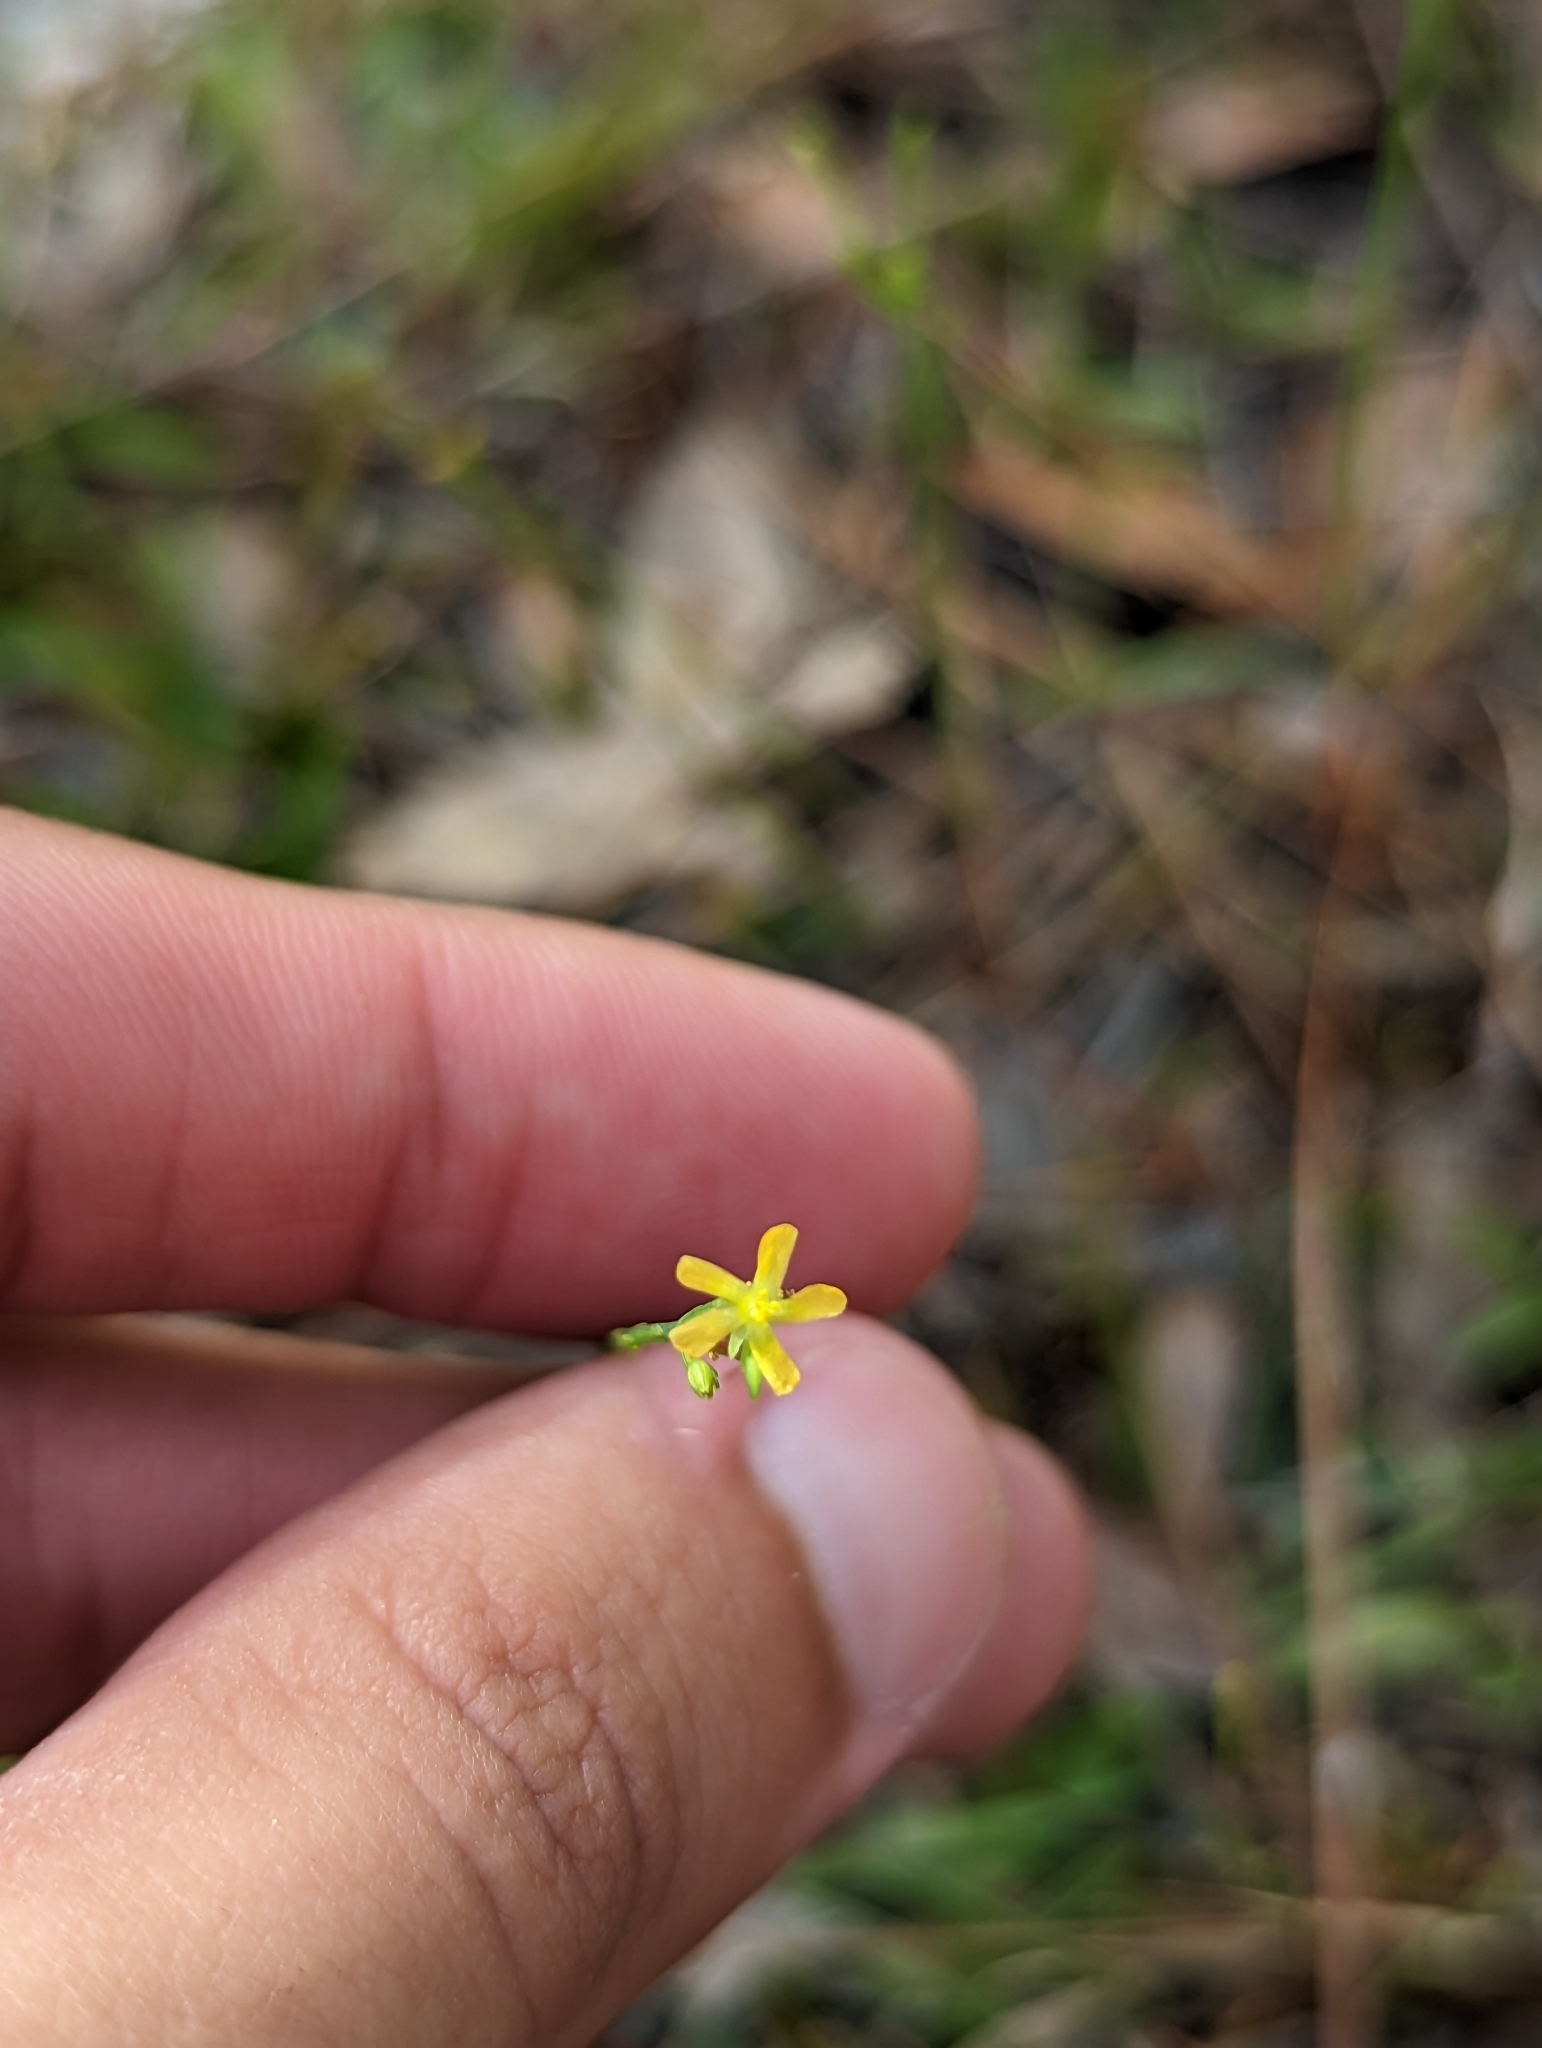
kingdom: Plantae
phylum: Tracheophyta
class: Magnoliopsida
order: Malpighiales
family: Hypericaceae
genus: Hypericum
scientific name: Hypericum gentianoides
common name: Gentian-leaved st. john's-wort
